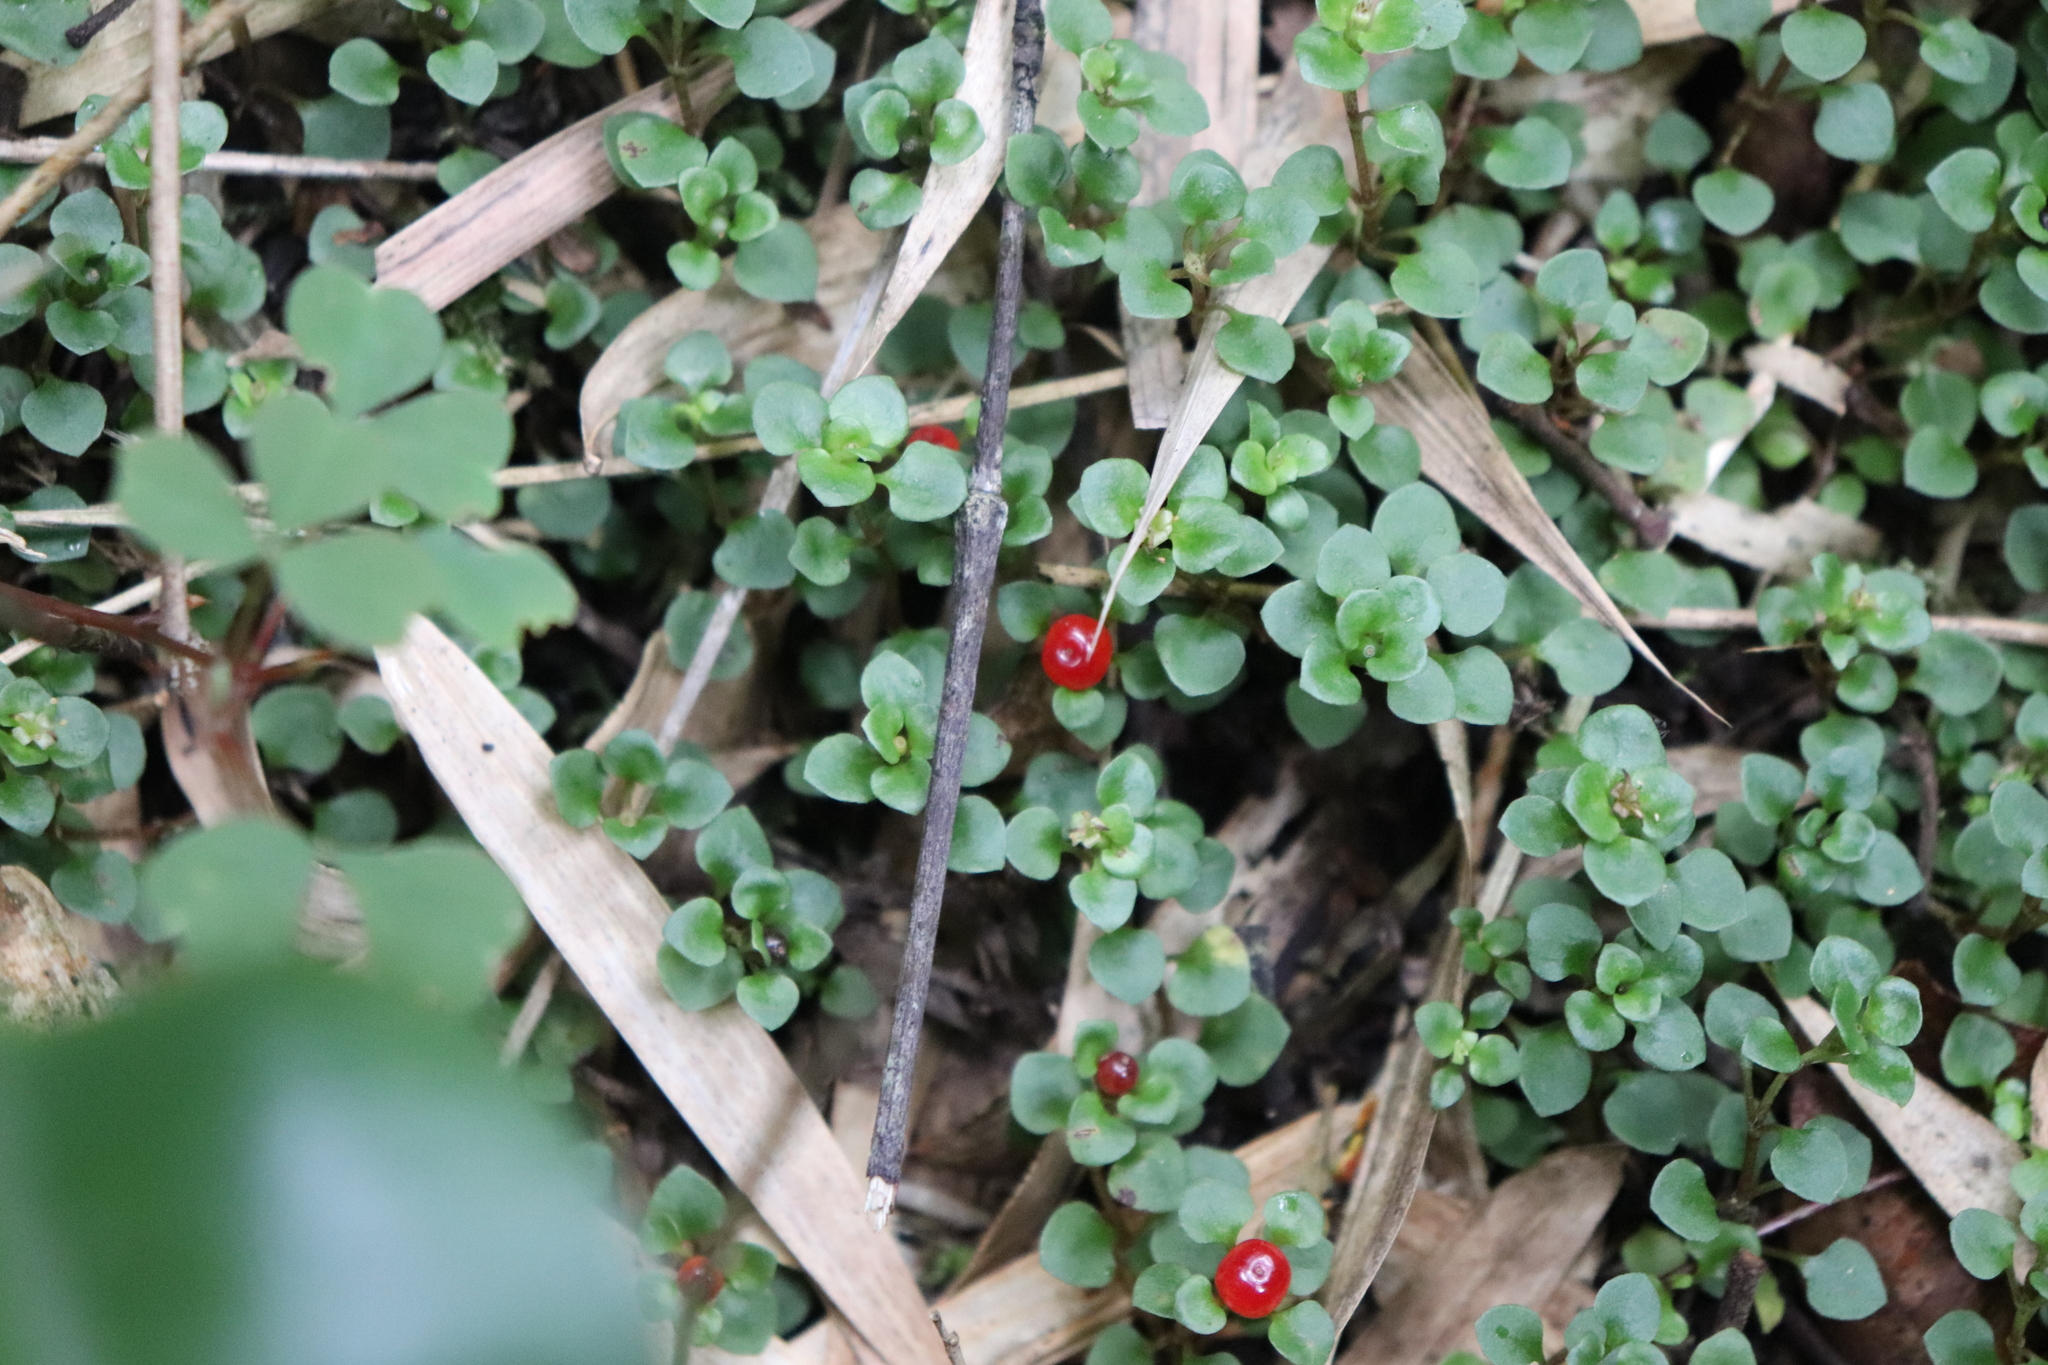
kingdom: Plantae
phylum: Tracheophyta
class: Magnoliopsida
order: Gentianales
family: Rubiaceae
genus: Nertera
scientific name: Nertera granadensis
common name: Beadplant
